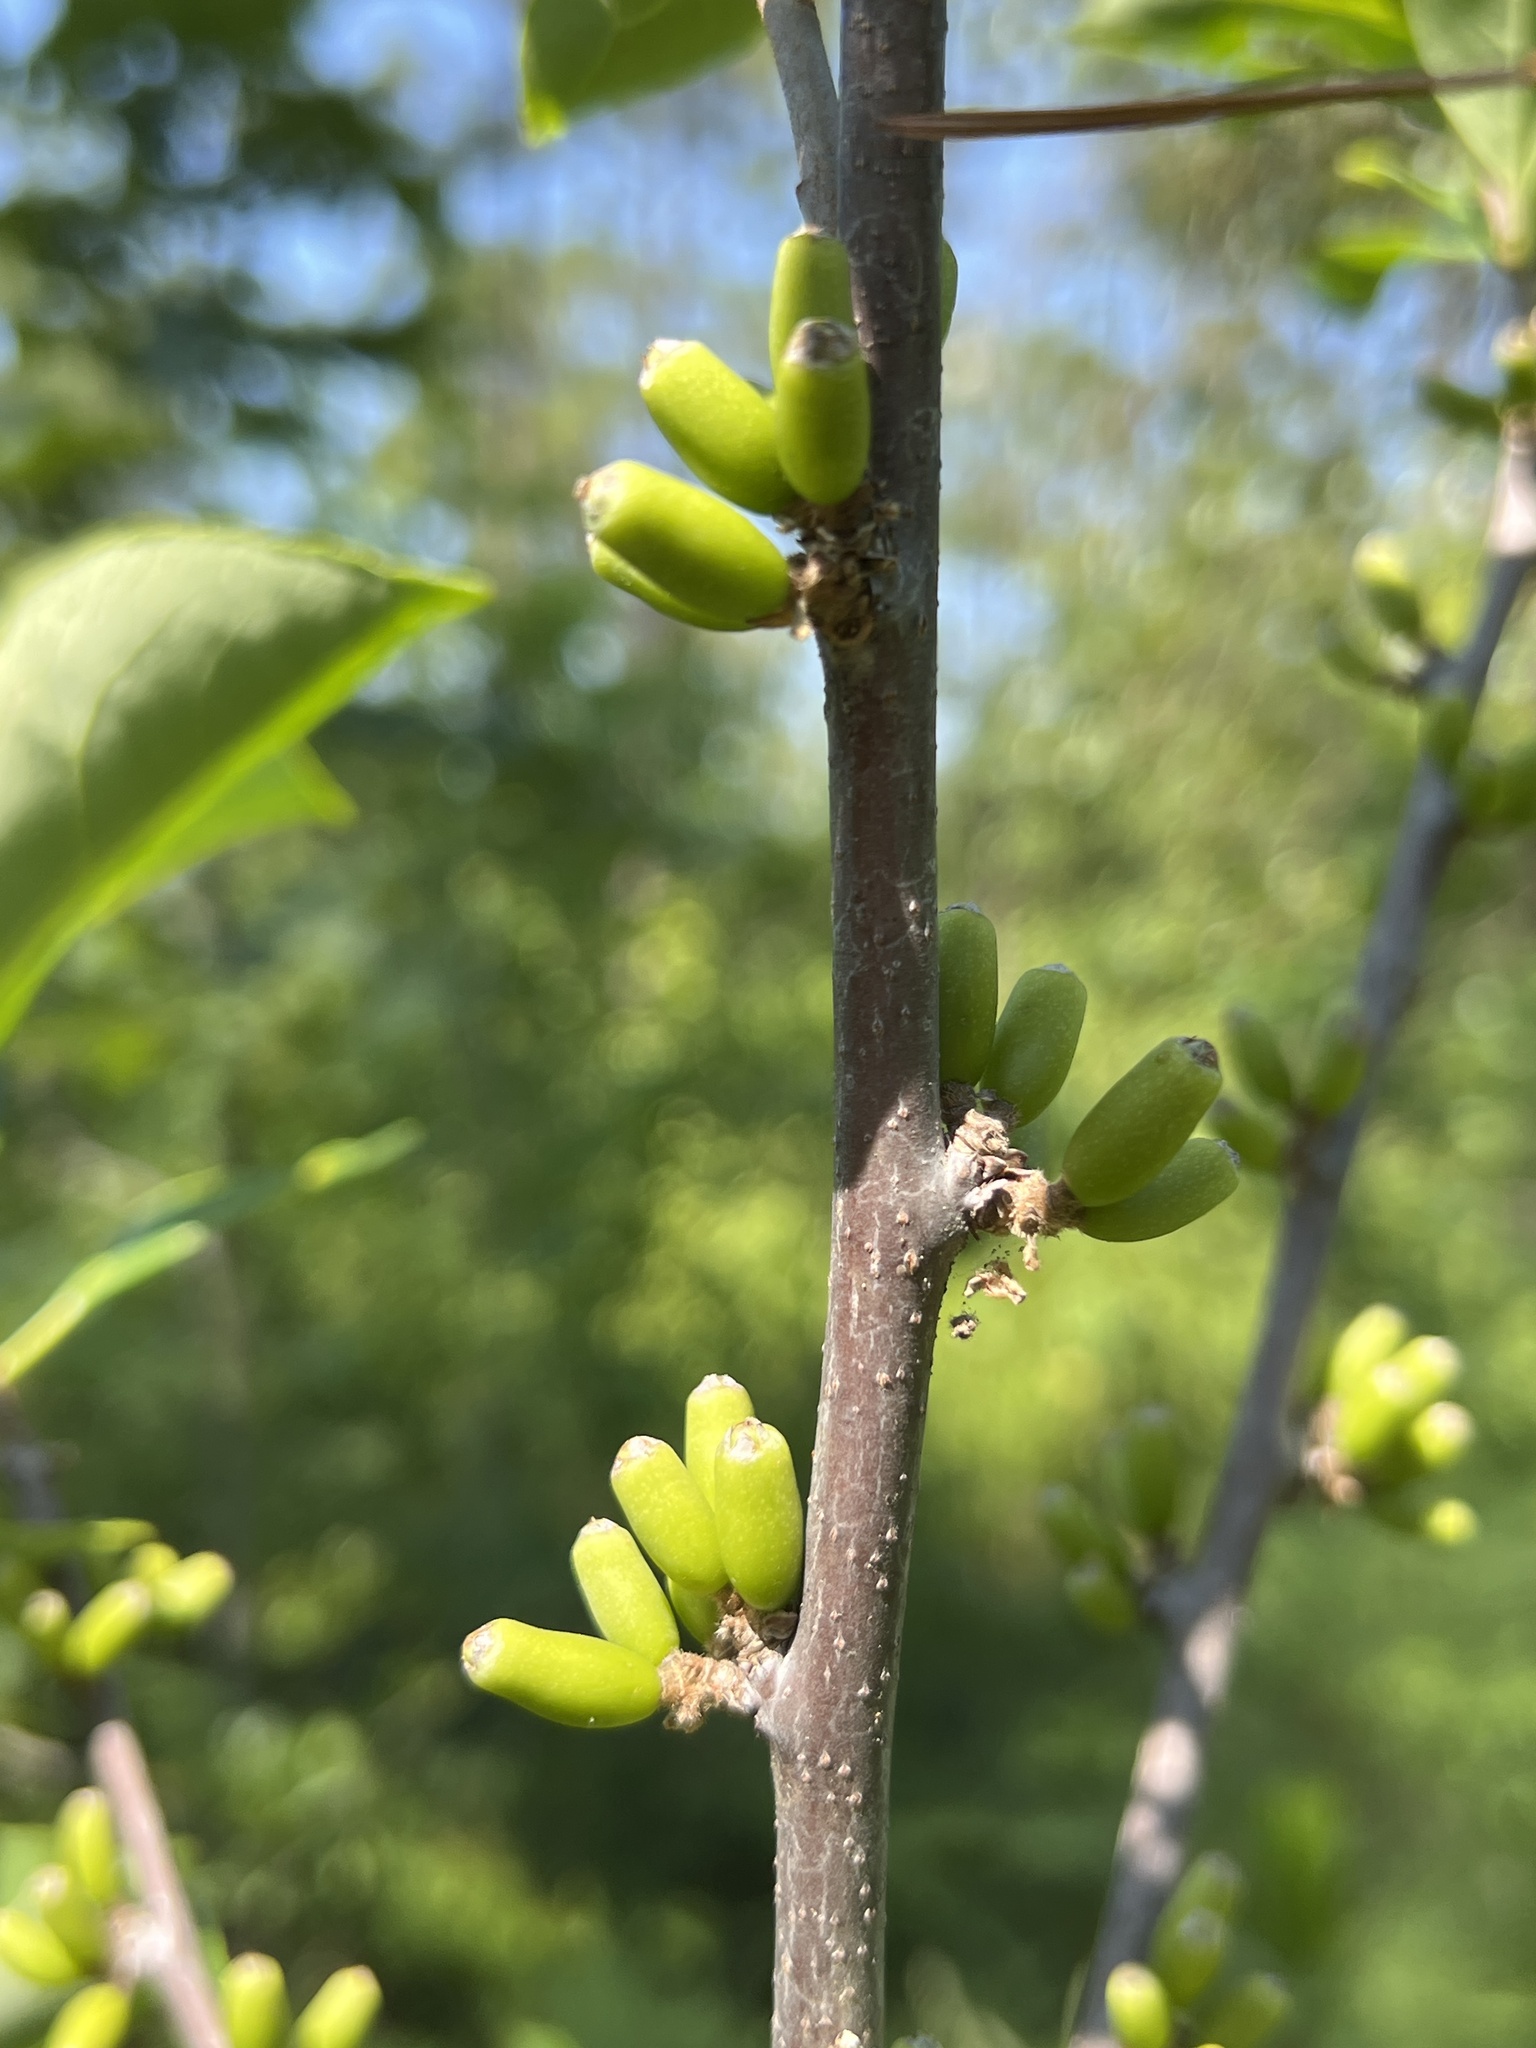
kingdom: Plantae
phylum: Tracheophyta
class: Magnoliopsida
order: Ericales
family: Symplocaceae
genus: Symplocos
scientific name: Symplocos tinctoria
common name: Horse-sugar
